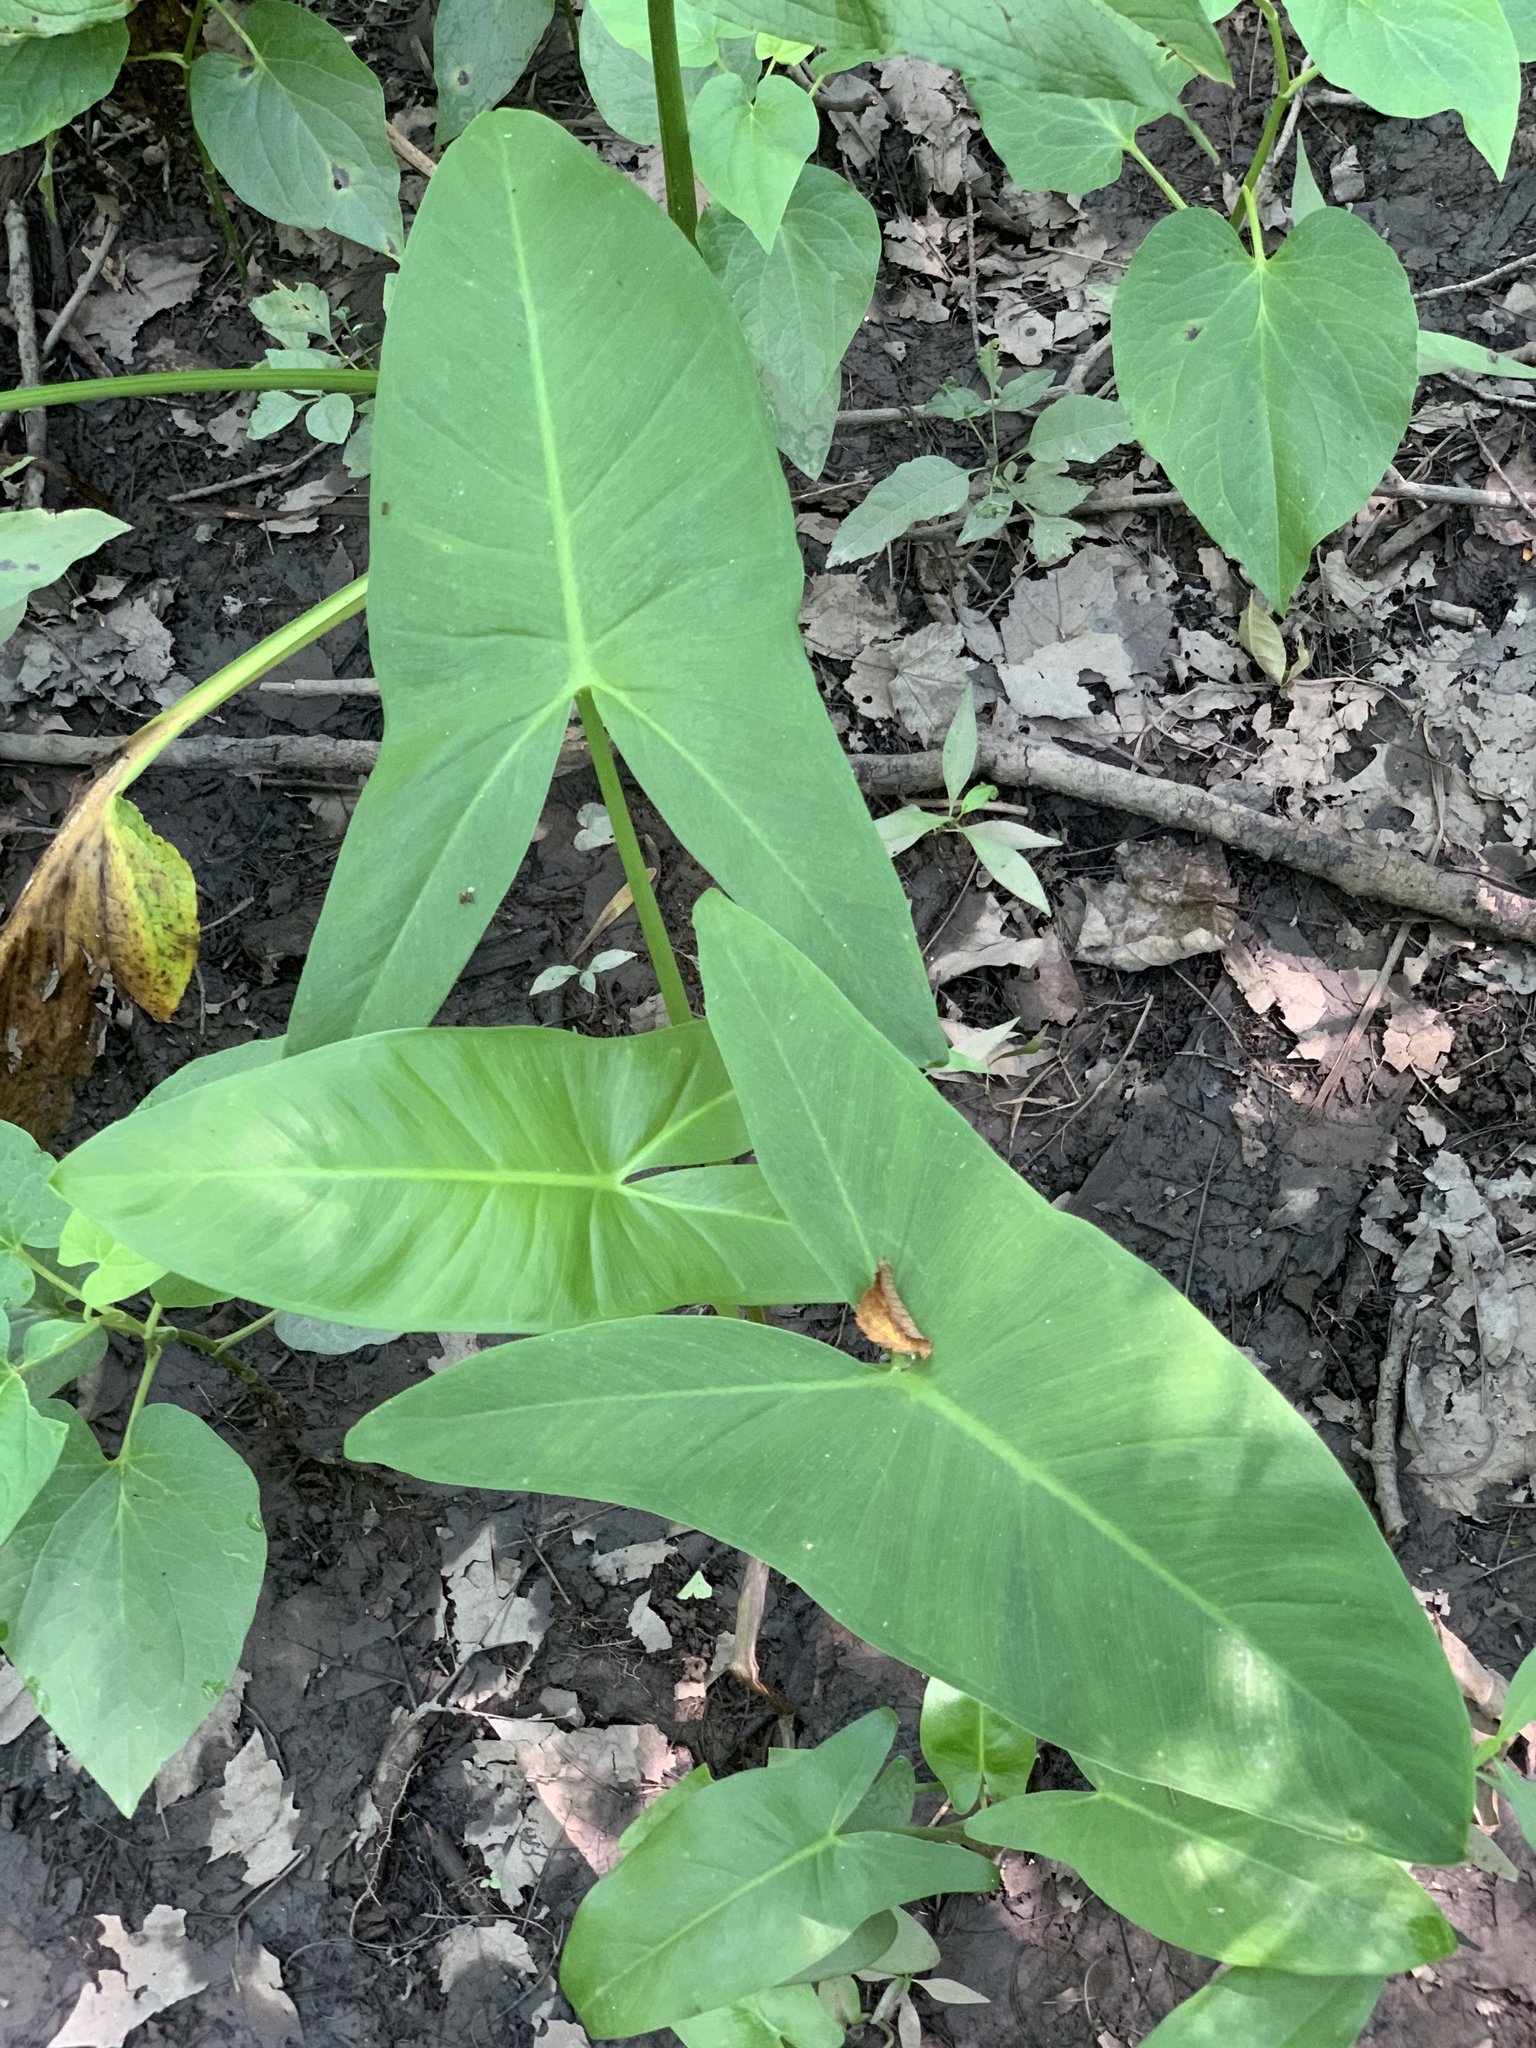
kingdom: Plantae
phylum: Tracheophyta
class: Liliopsida
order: Alismatales
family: Araceae
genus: Peltandra
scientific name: Peltandra virginica
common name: Arrow arum
